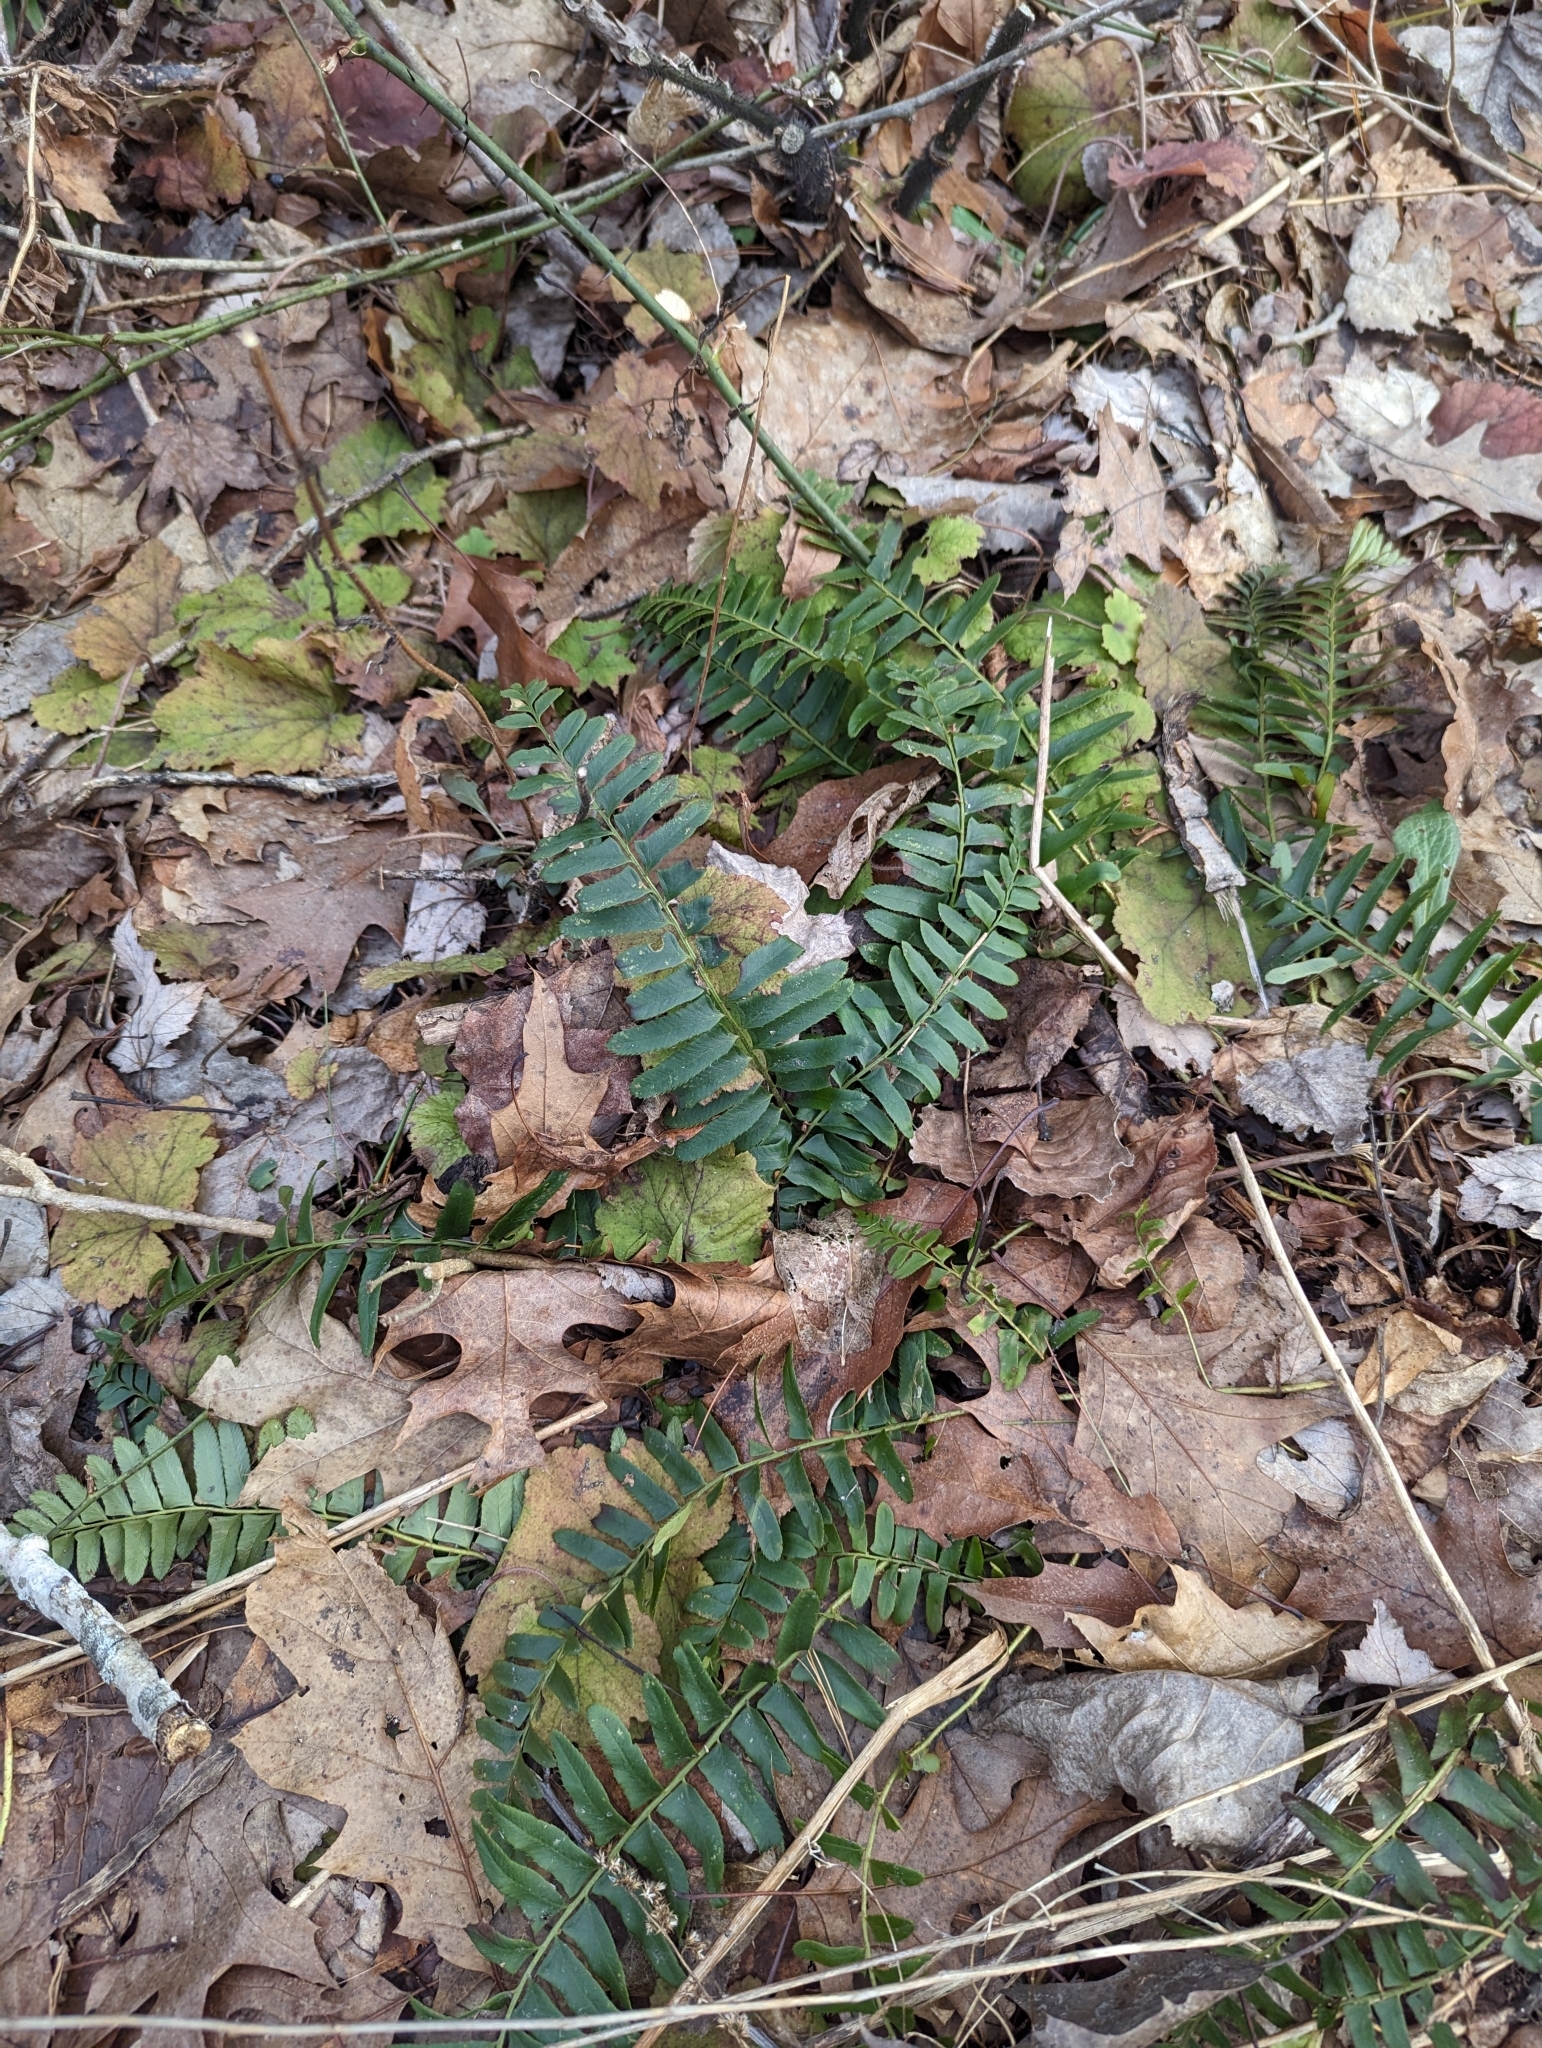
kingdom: Plantae
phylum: Tracheophyta
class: Polypodiopsida
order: Polypodiales
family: Dryopteridaceae
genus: Polystichum
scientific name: Polystichum acrostichoides
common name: Christmas fern
